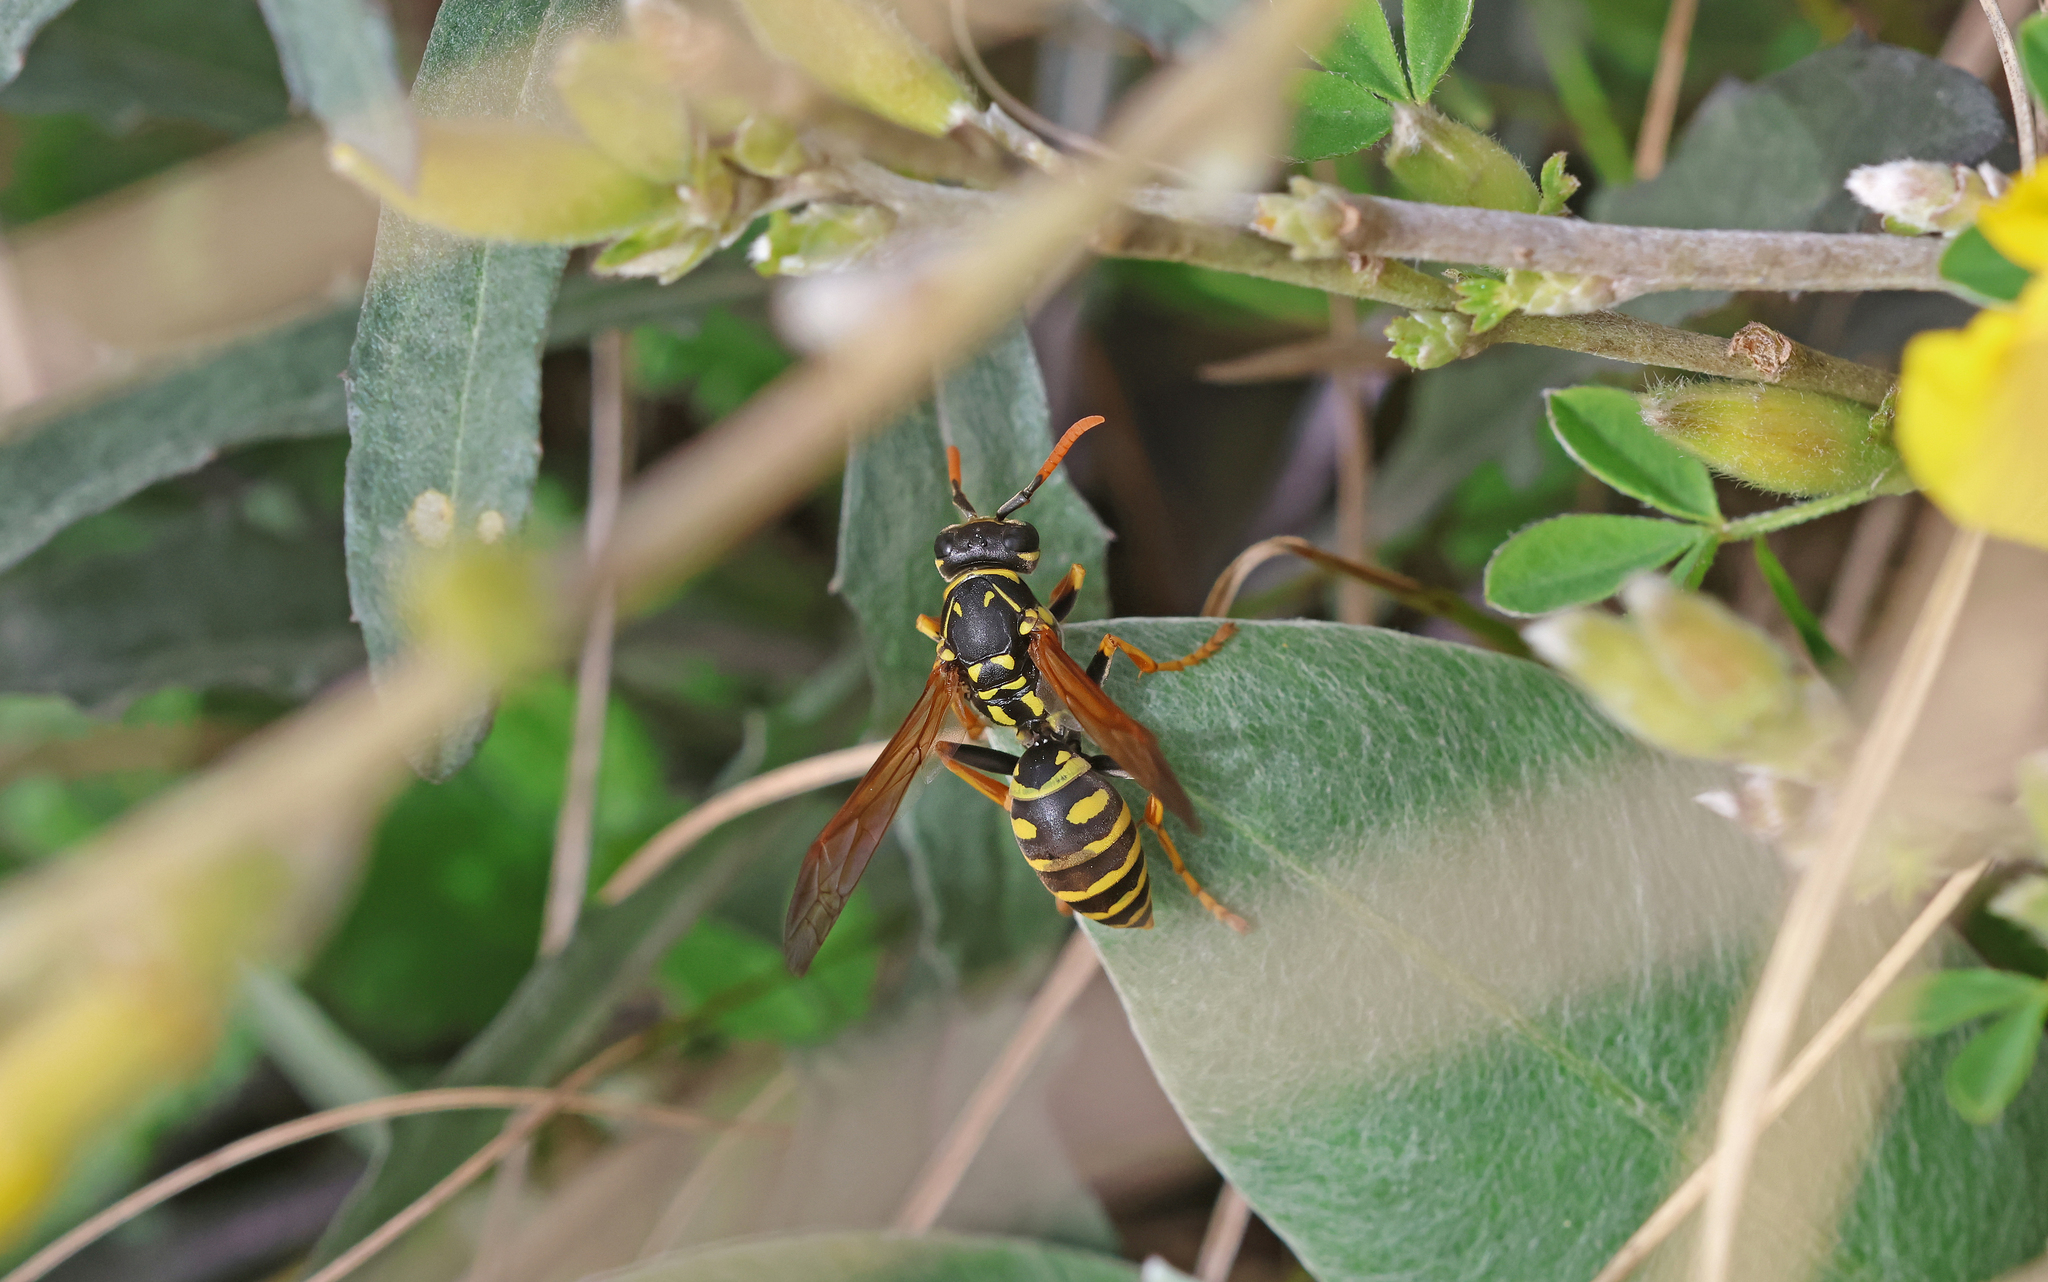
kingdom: Animalia
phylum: Arthropoda
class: Insecta
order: Hymenoptera
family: Eumenidae
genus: Polistes
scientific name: Polistes dominula
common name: Paper wasp
